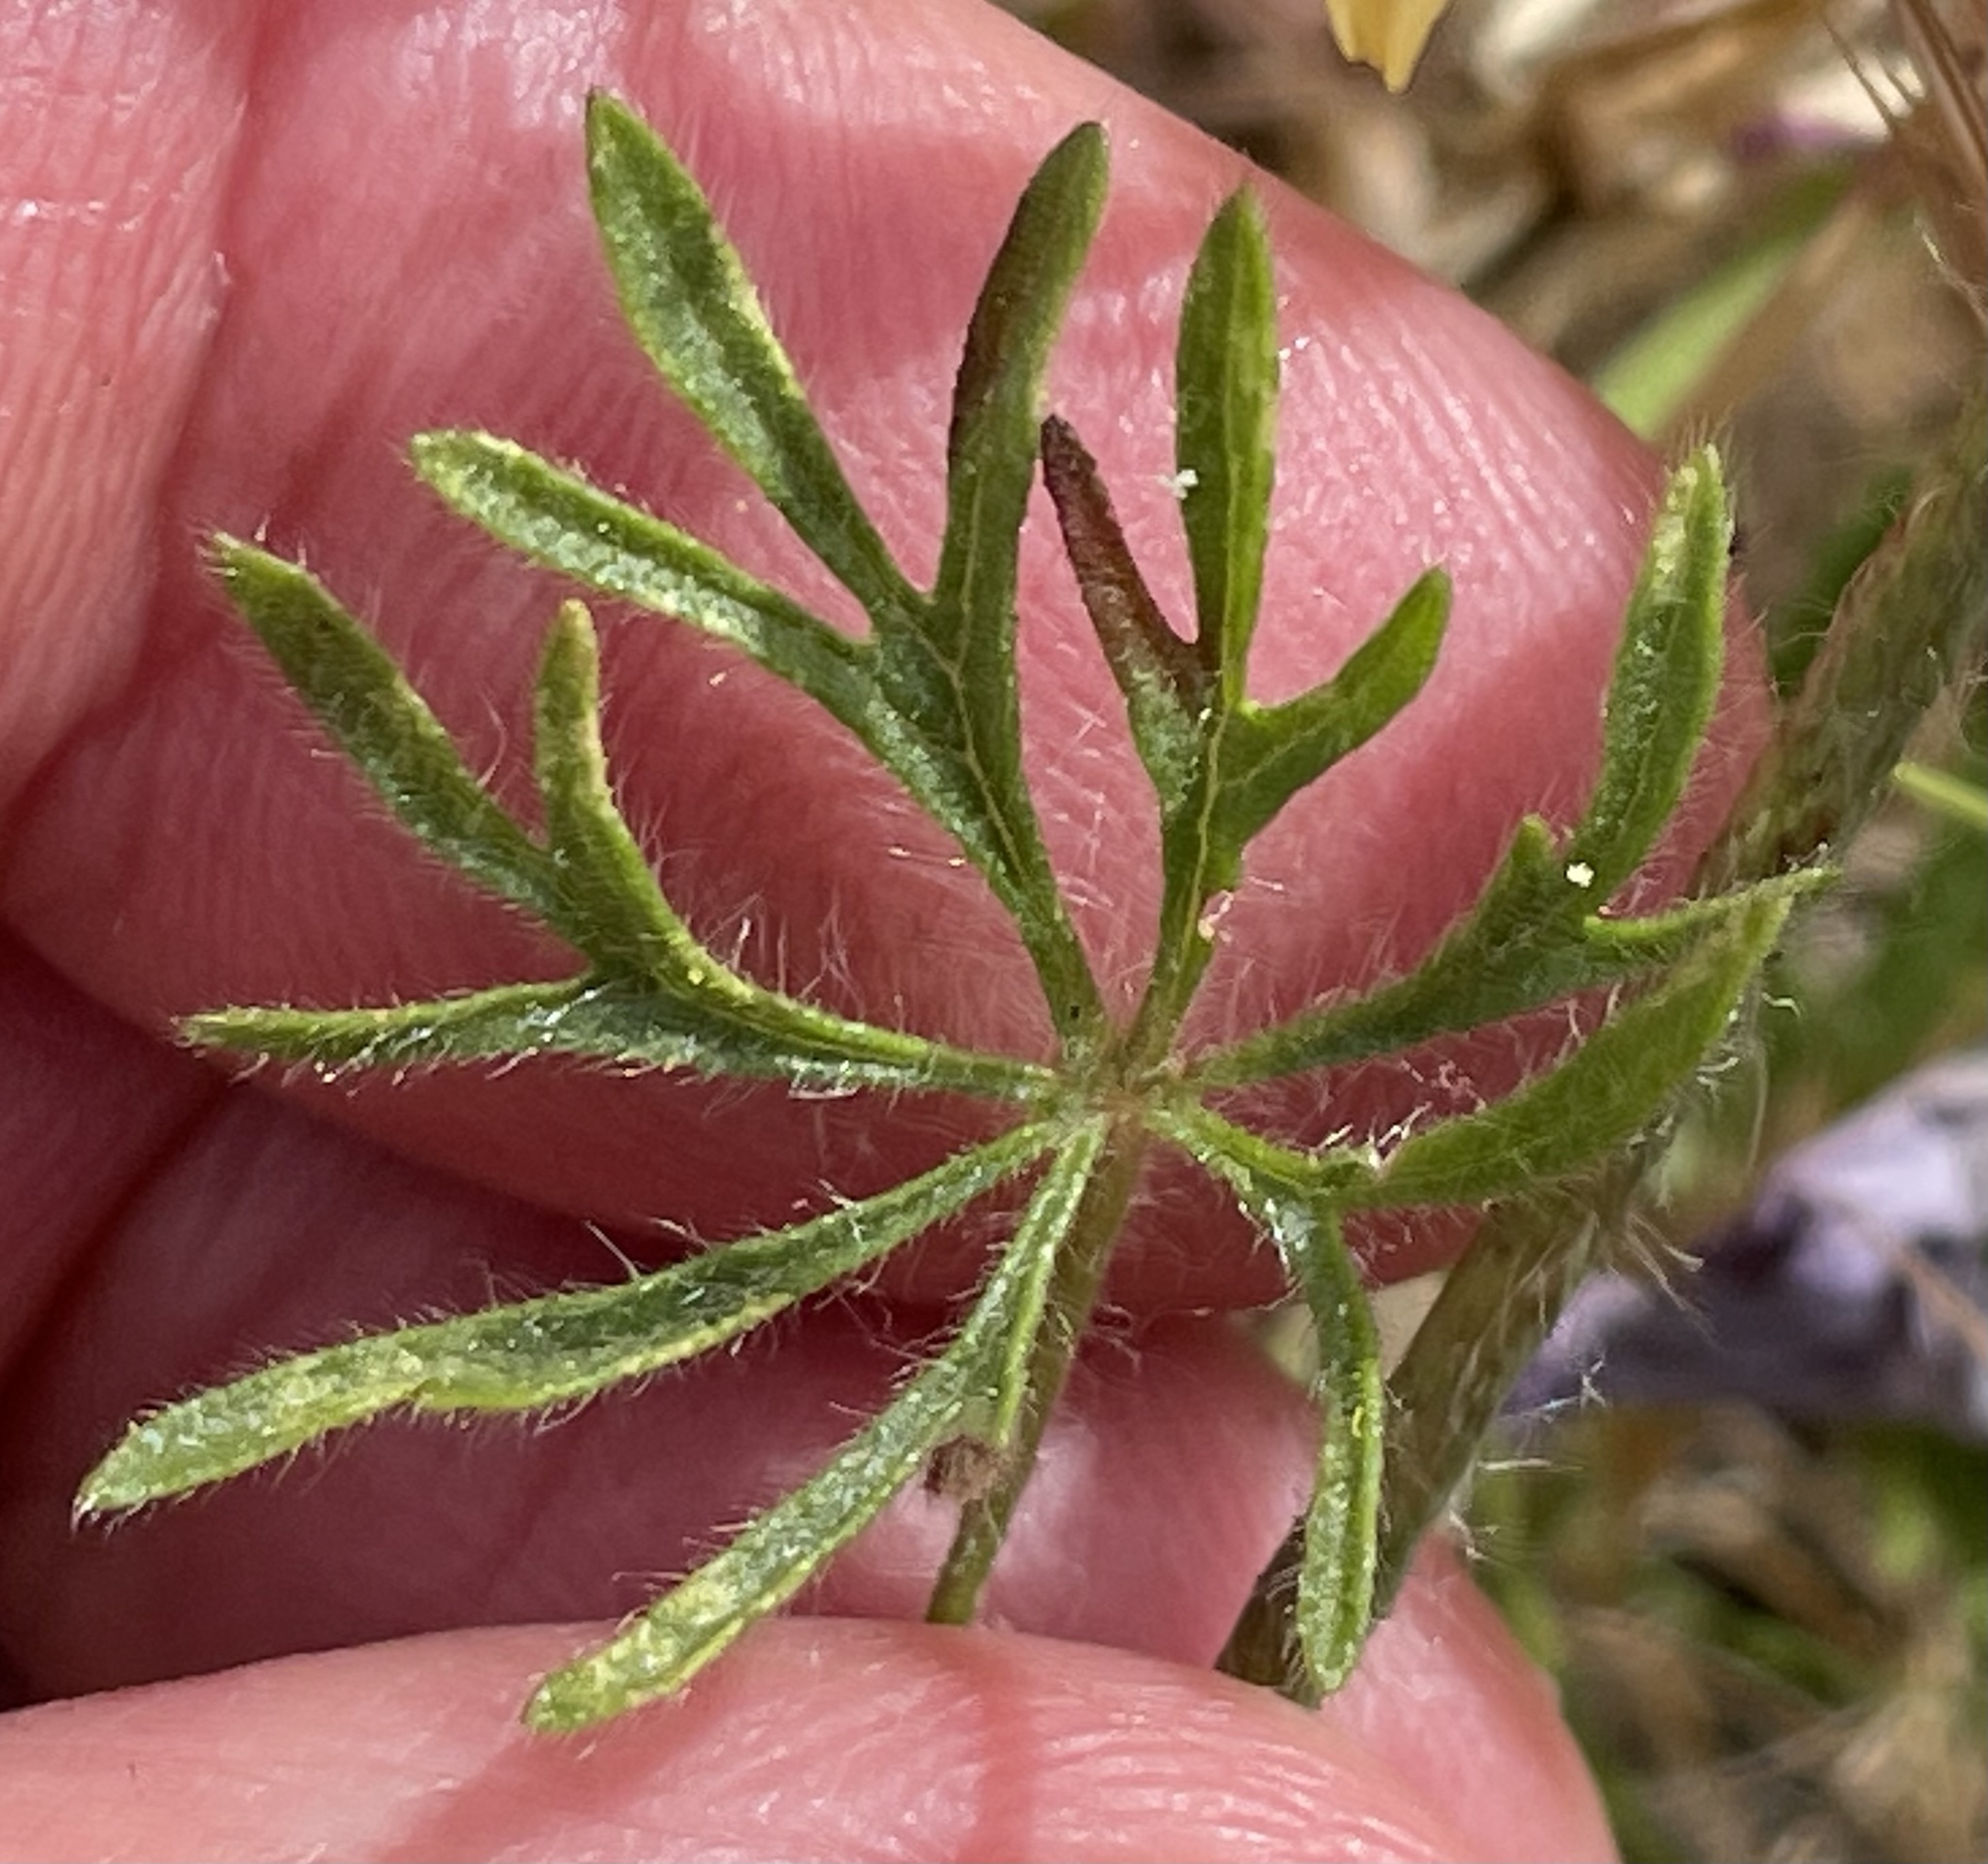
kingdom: Plantae
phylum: Tracheophyta
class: Magnoliopsida
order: Malvales
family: Malvaceae
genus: Sidalcea
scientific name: Sidalcea malviflora
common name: Greek mallow
